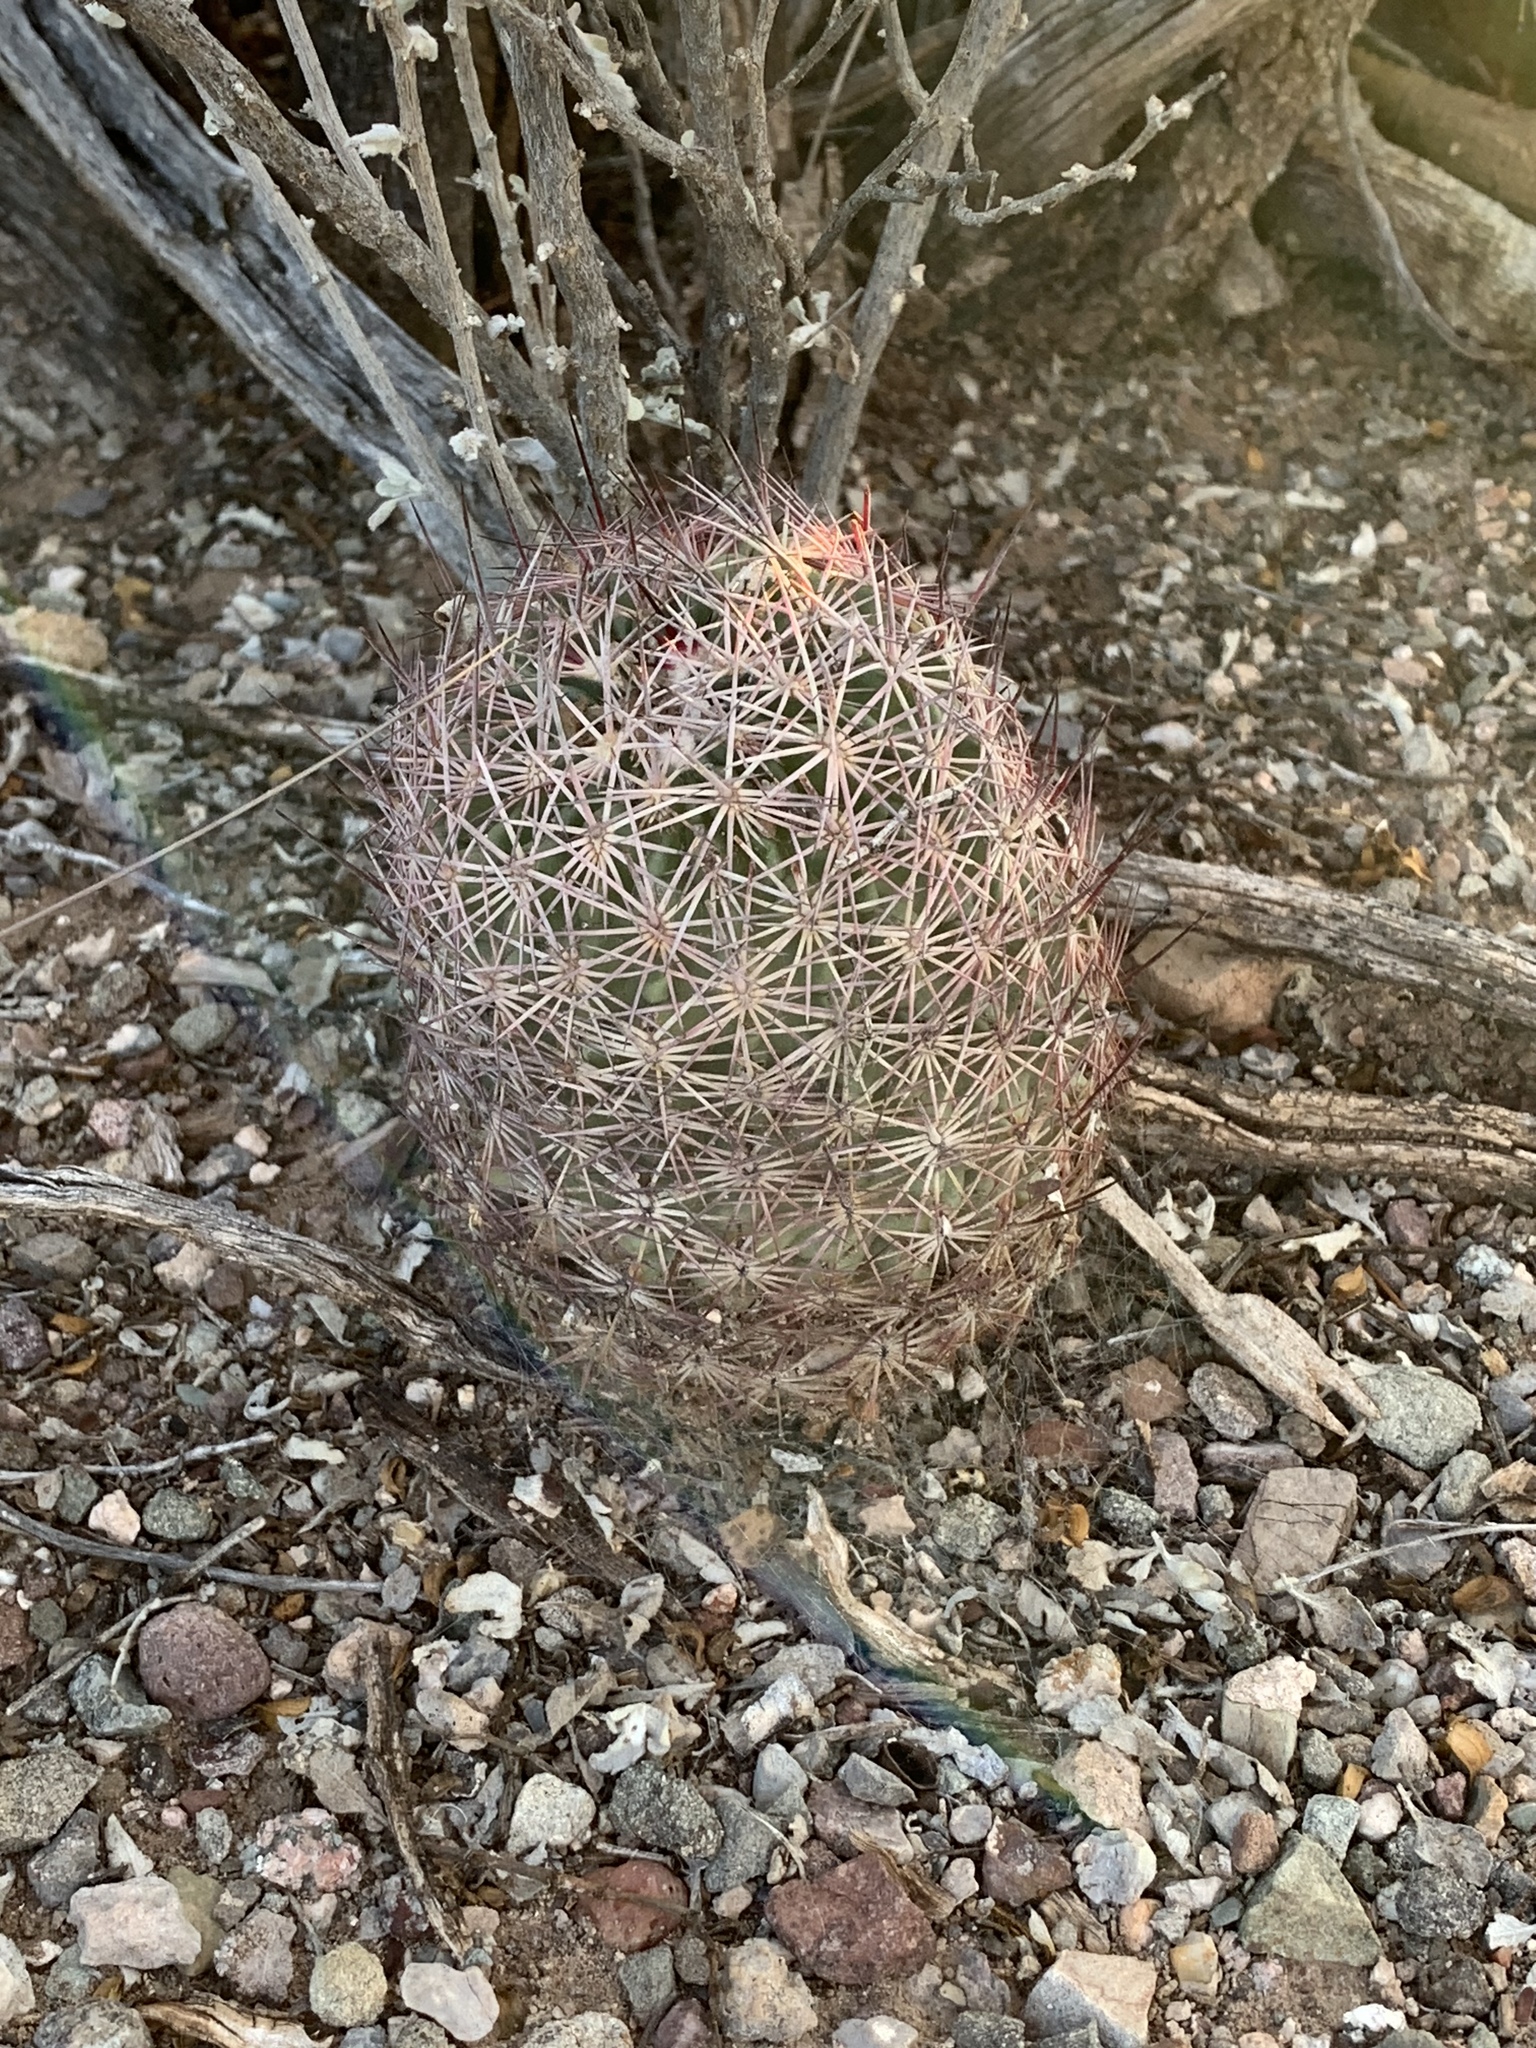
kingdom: Plantae
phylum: Tracheophyta
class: Magnoliopsida
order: Caryophyllales
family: Cactaceae
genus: Sclerocactus
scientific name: Sclerocactus johnsonii
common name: Eight-spine fishhook cactus
